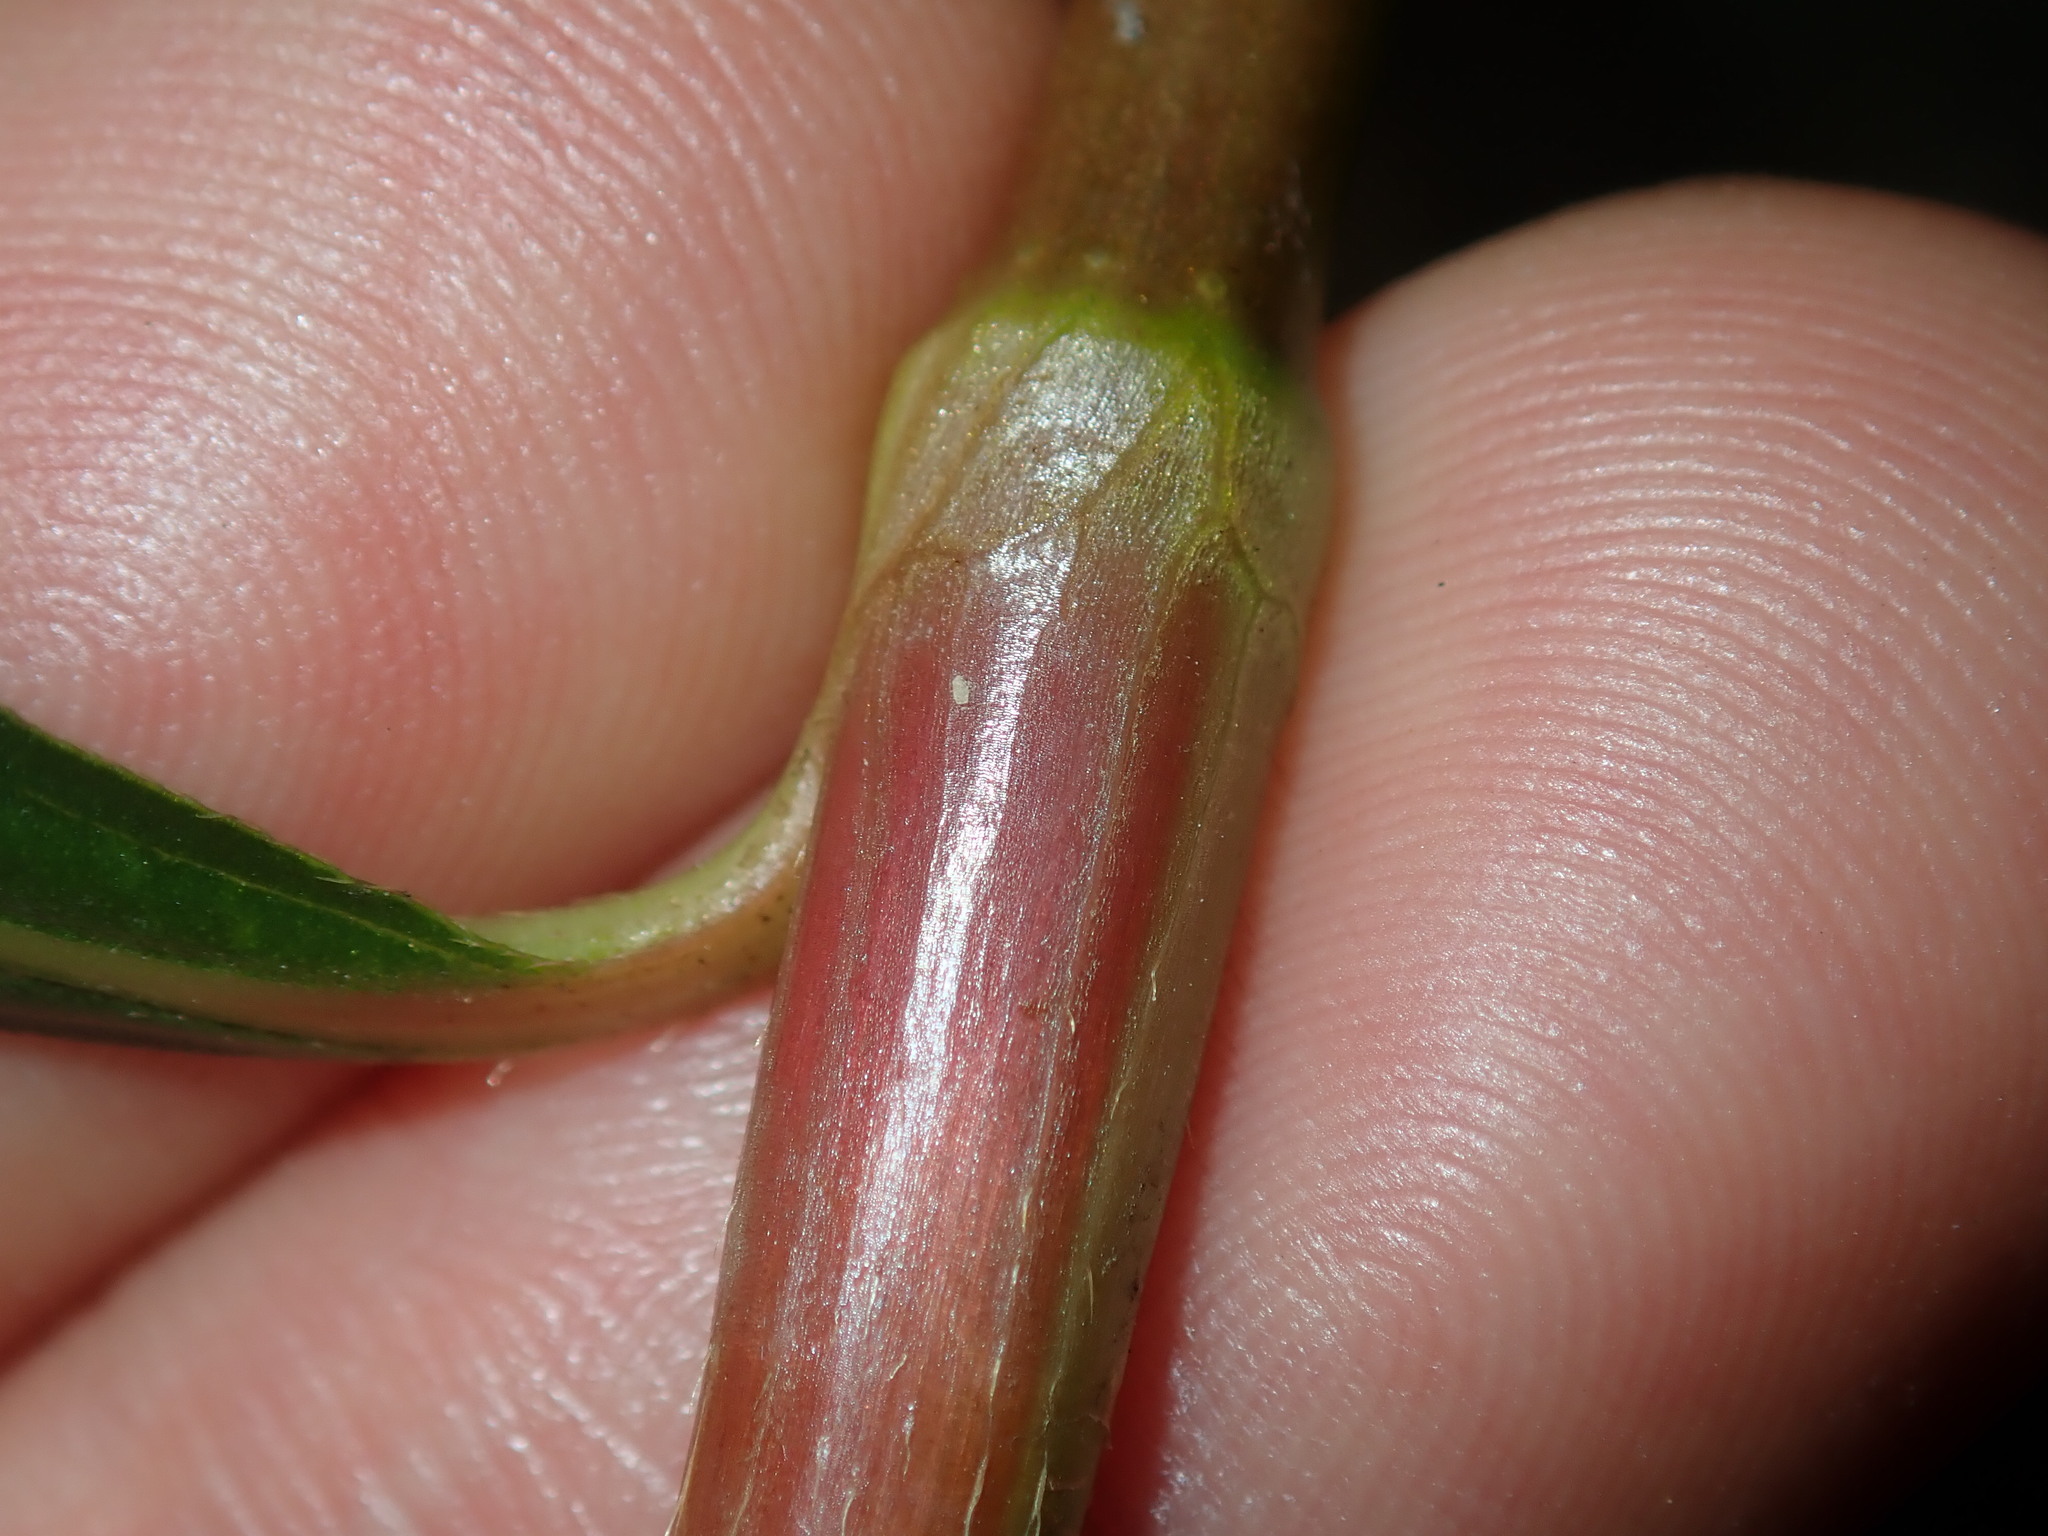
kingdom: Plantae
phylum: Tracheophyta
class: Magnoliopsida
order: Caryophyllales
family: Polygonaceae
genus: Persicaria
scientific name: Persicaria decipiens
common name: Willow-weed
